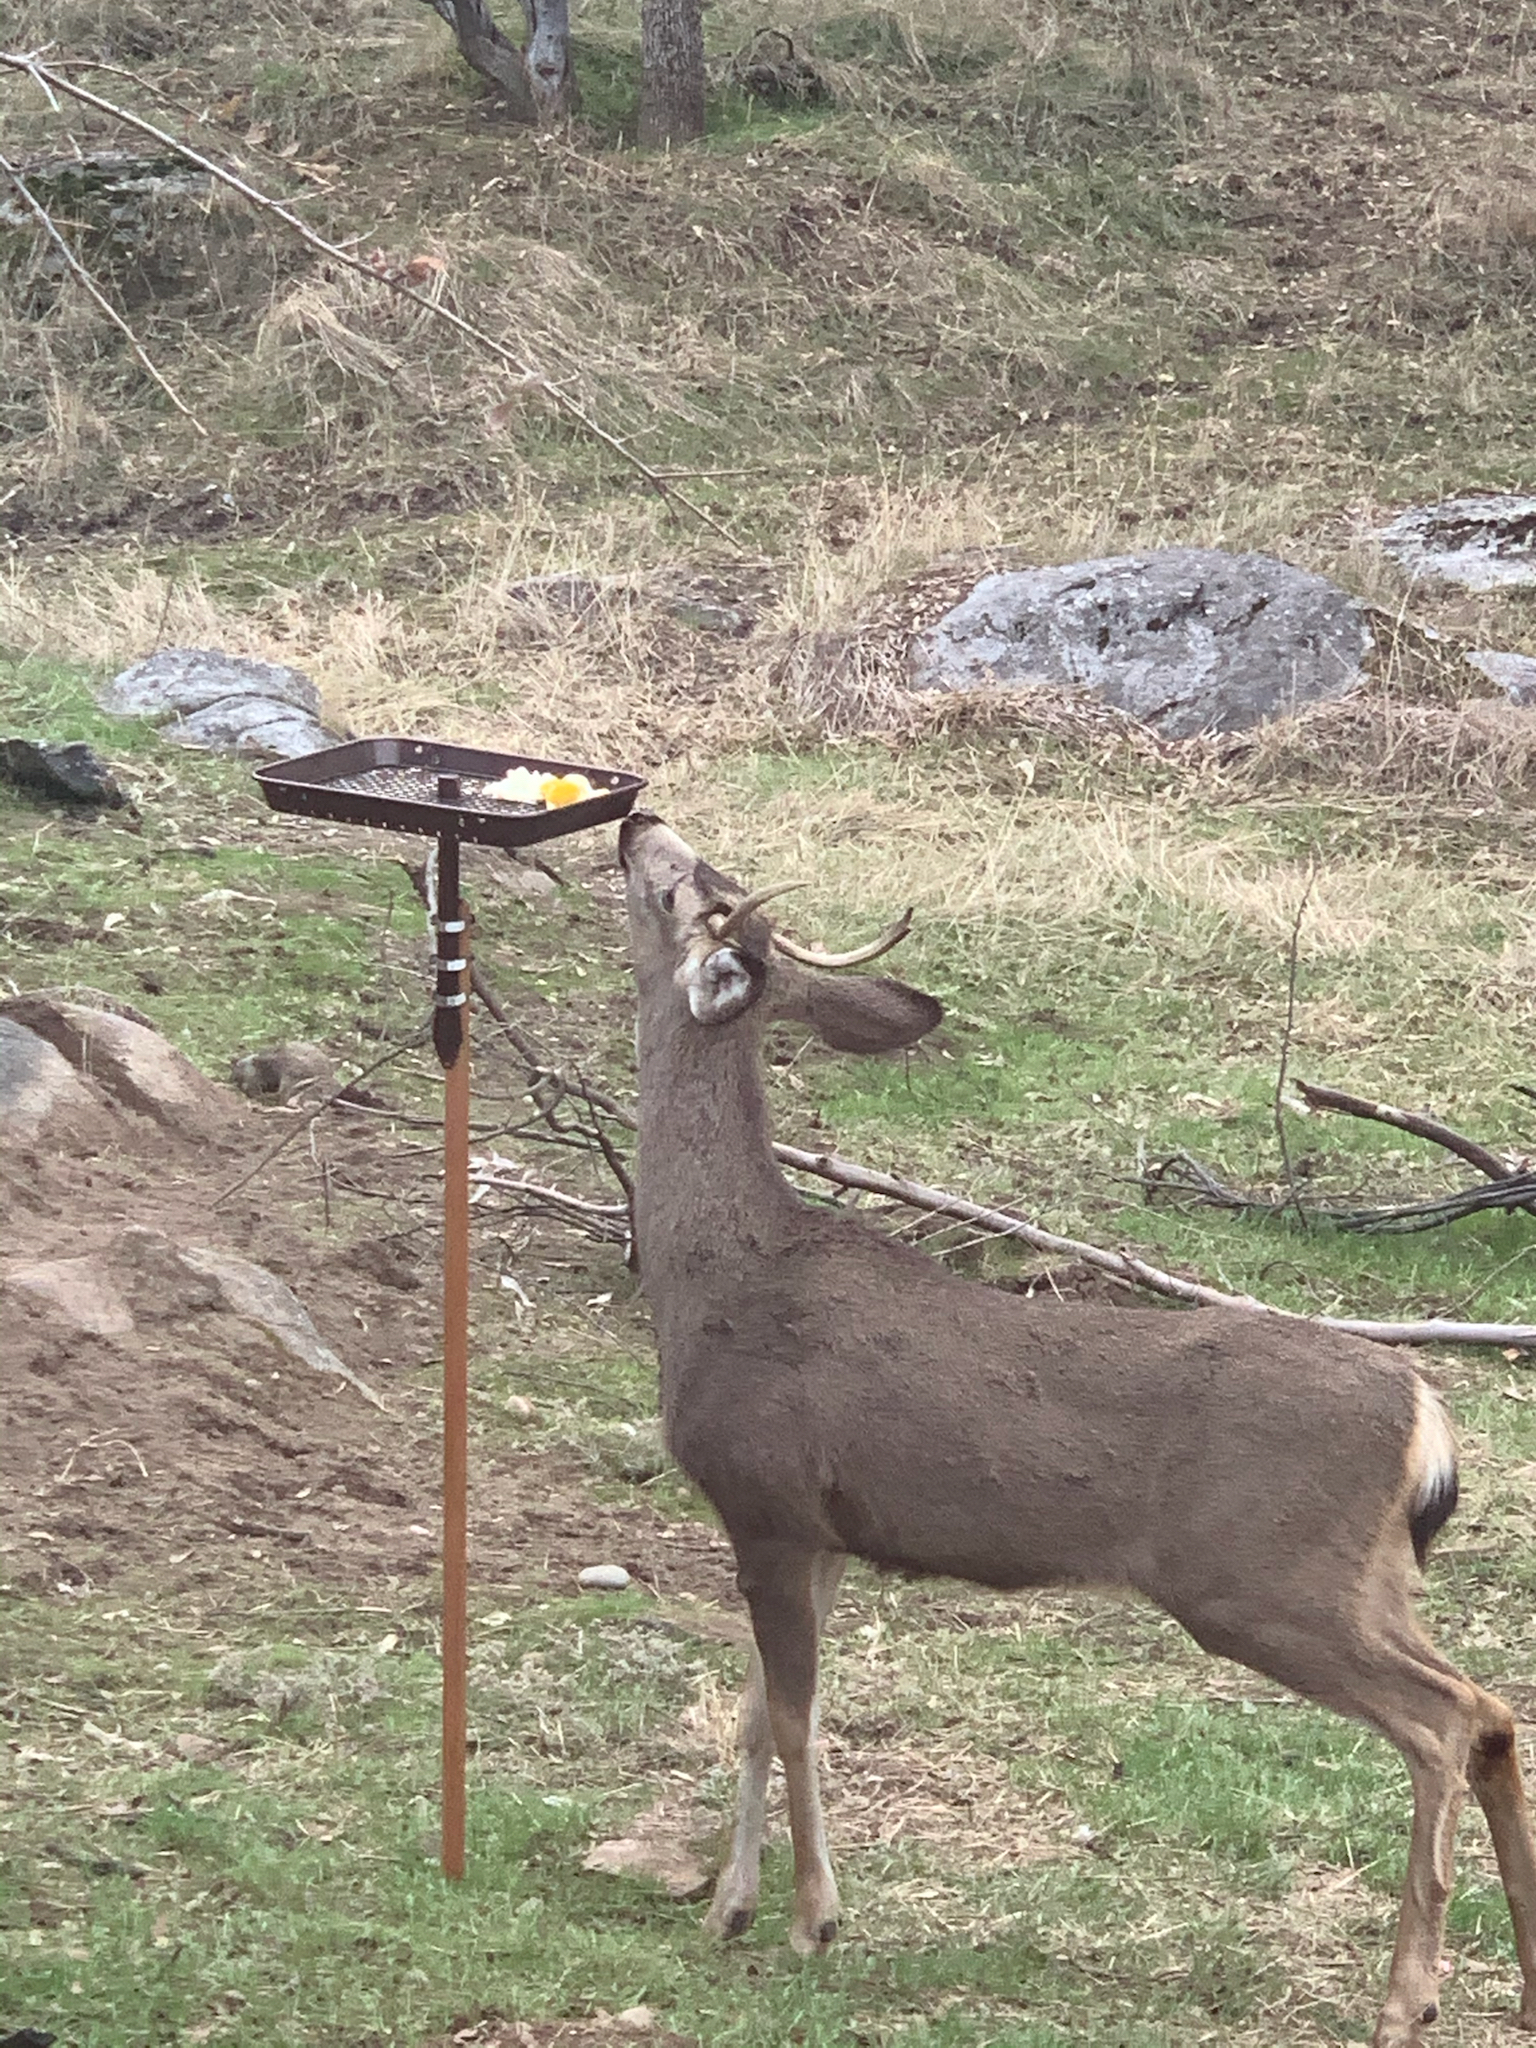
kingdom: Animalia
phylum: Chordata
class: Mammalia
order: Artiodactyla
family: Cervidae
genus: Odocoileus
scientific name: Odocoileus hemionus
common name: Mule deer
